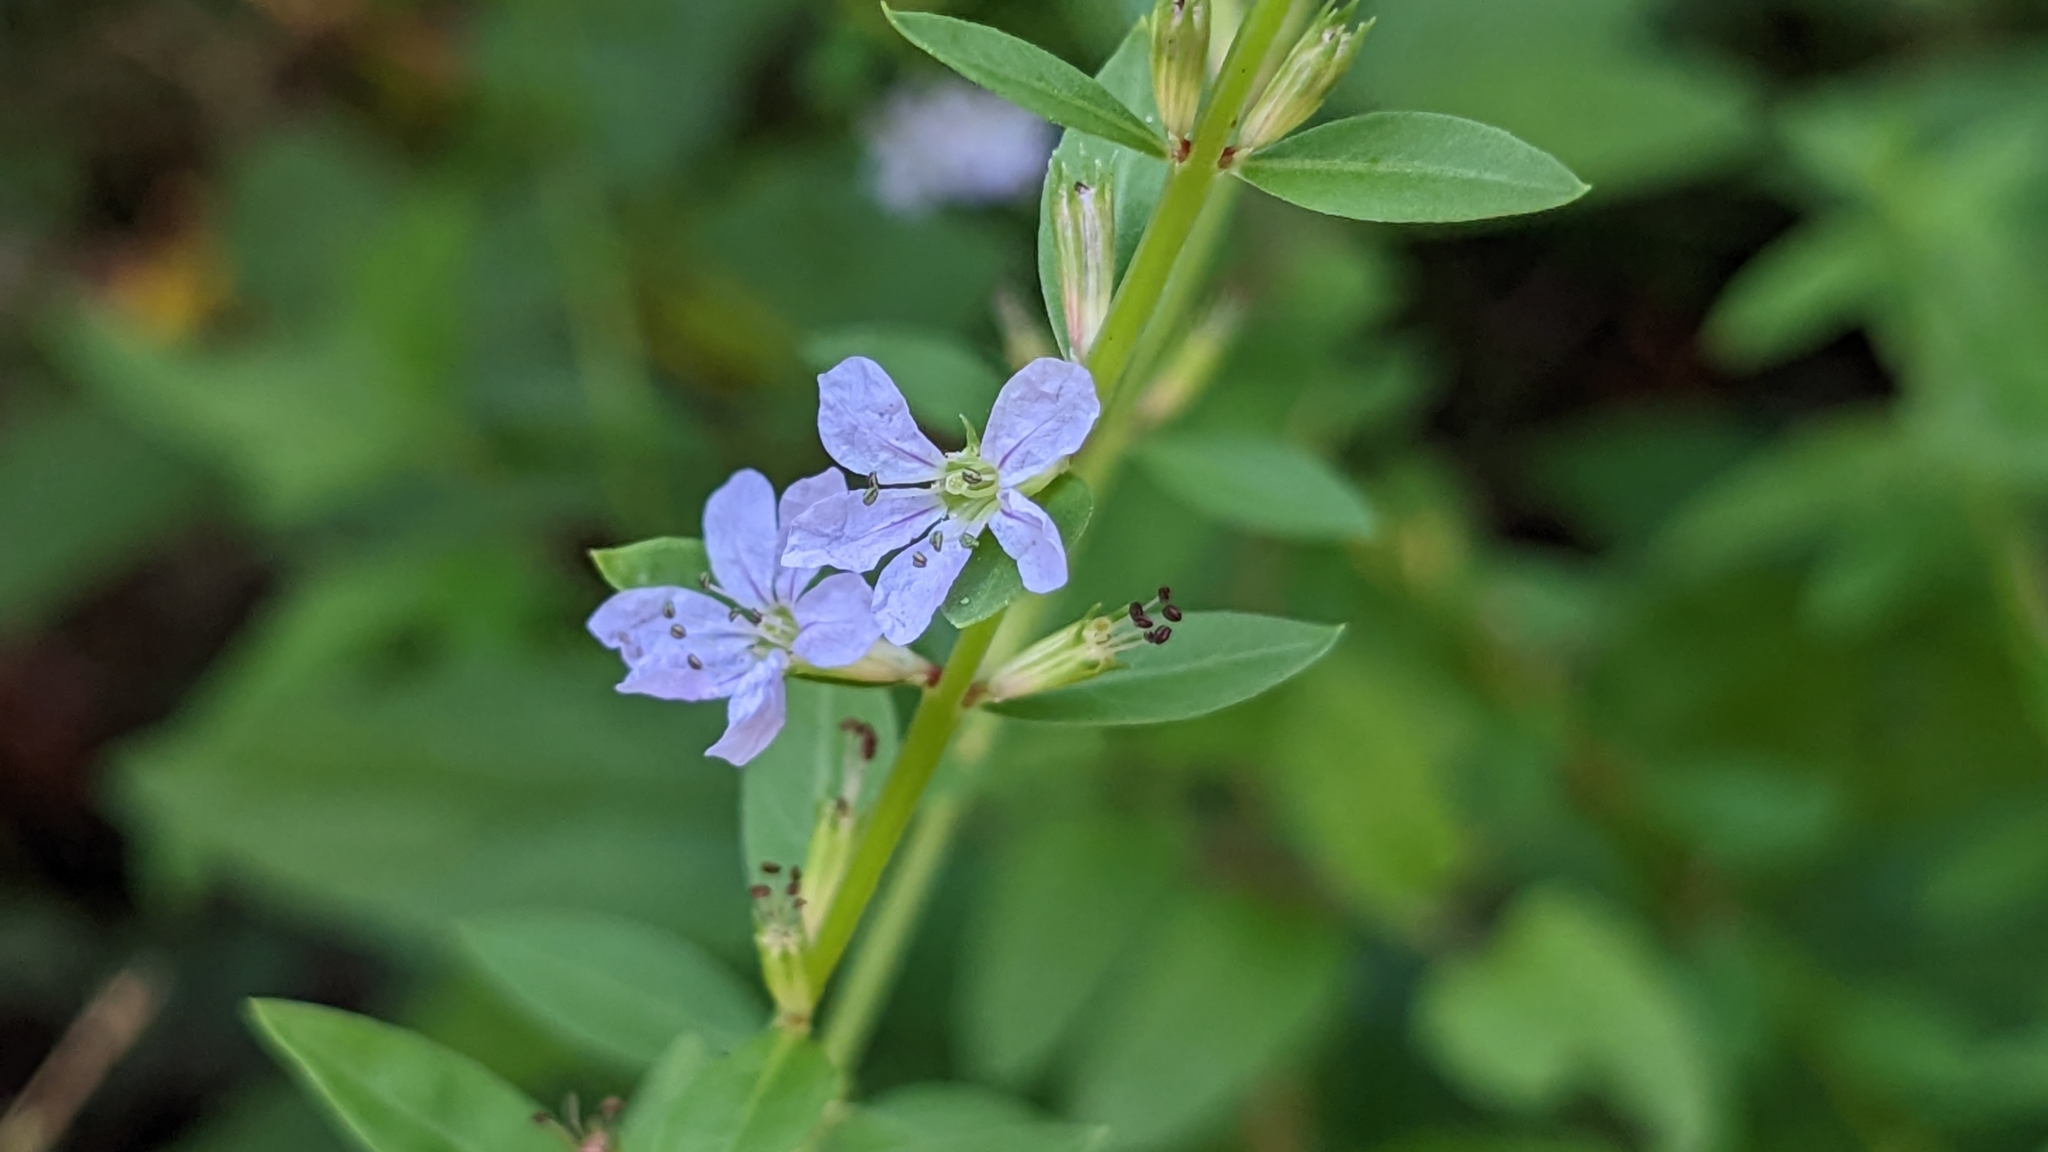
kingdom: Plantae
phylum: Tracheophyta
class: Magnoliopsida
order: Myrtales
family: Lythraceae
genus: Lythrum
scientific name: Lythrum alatum
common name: Winged loosestrife
